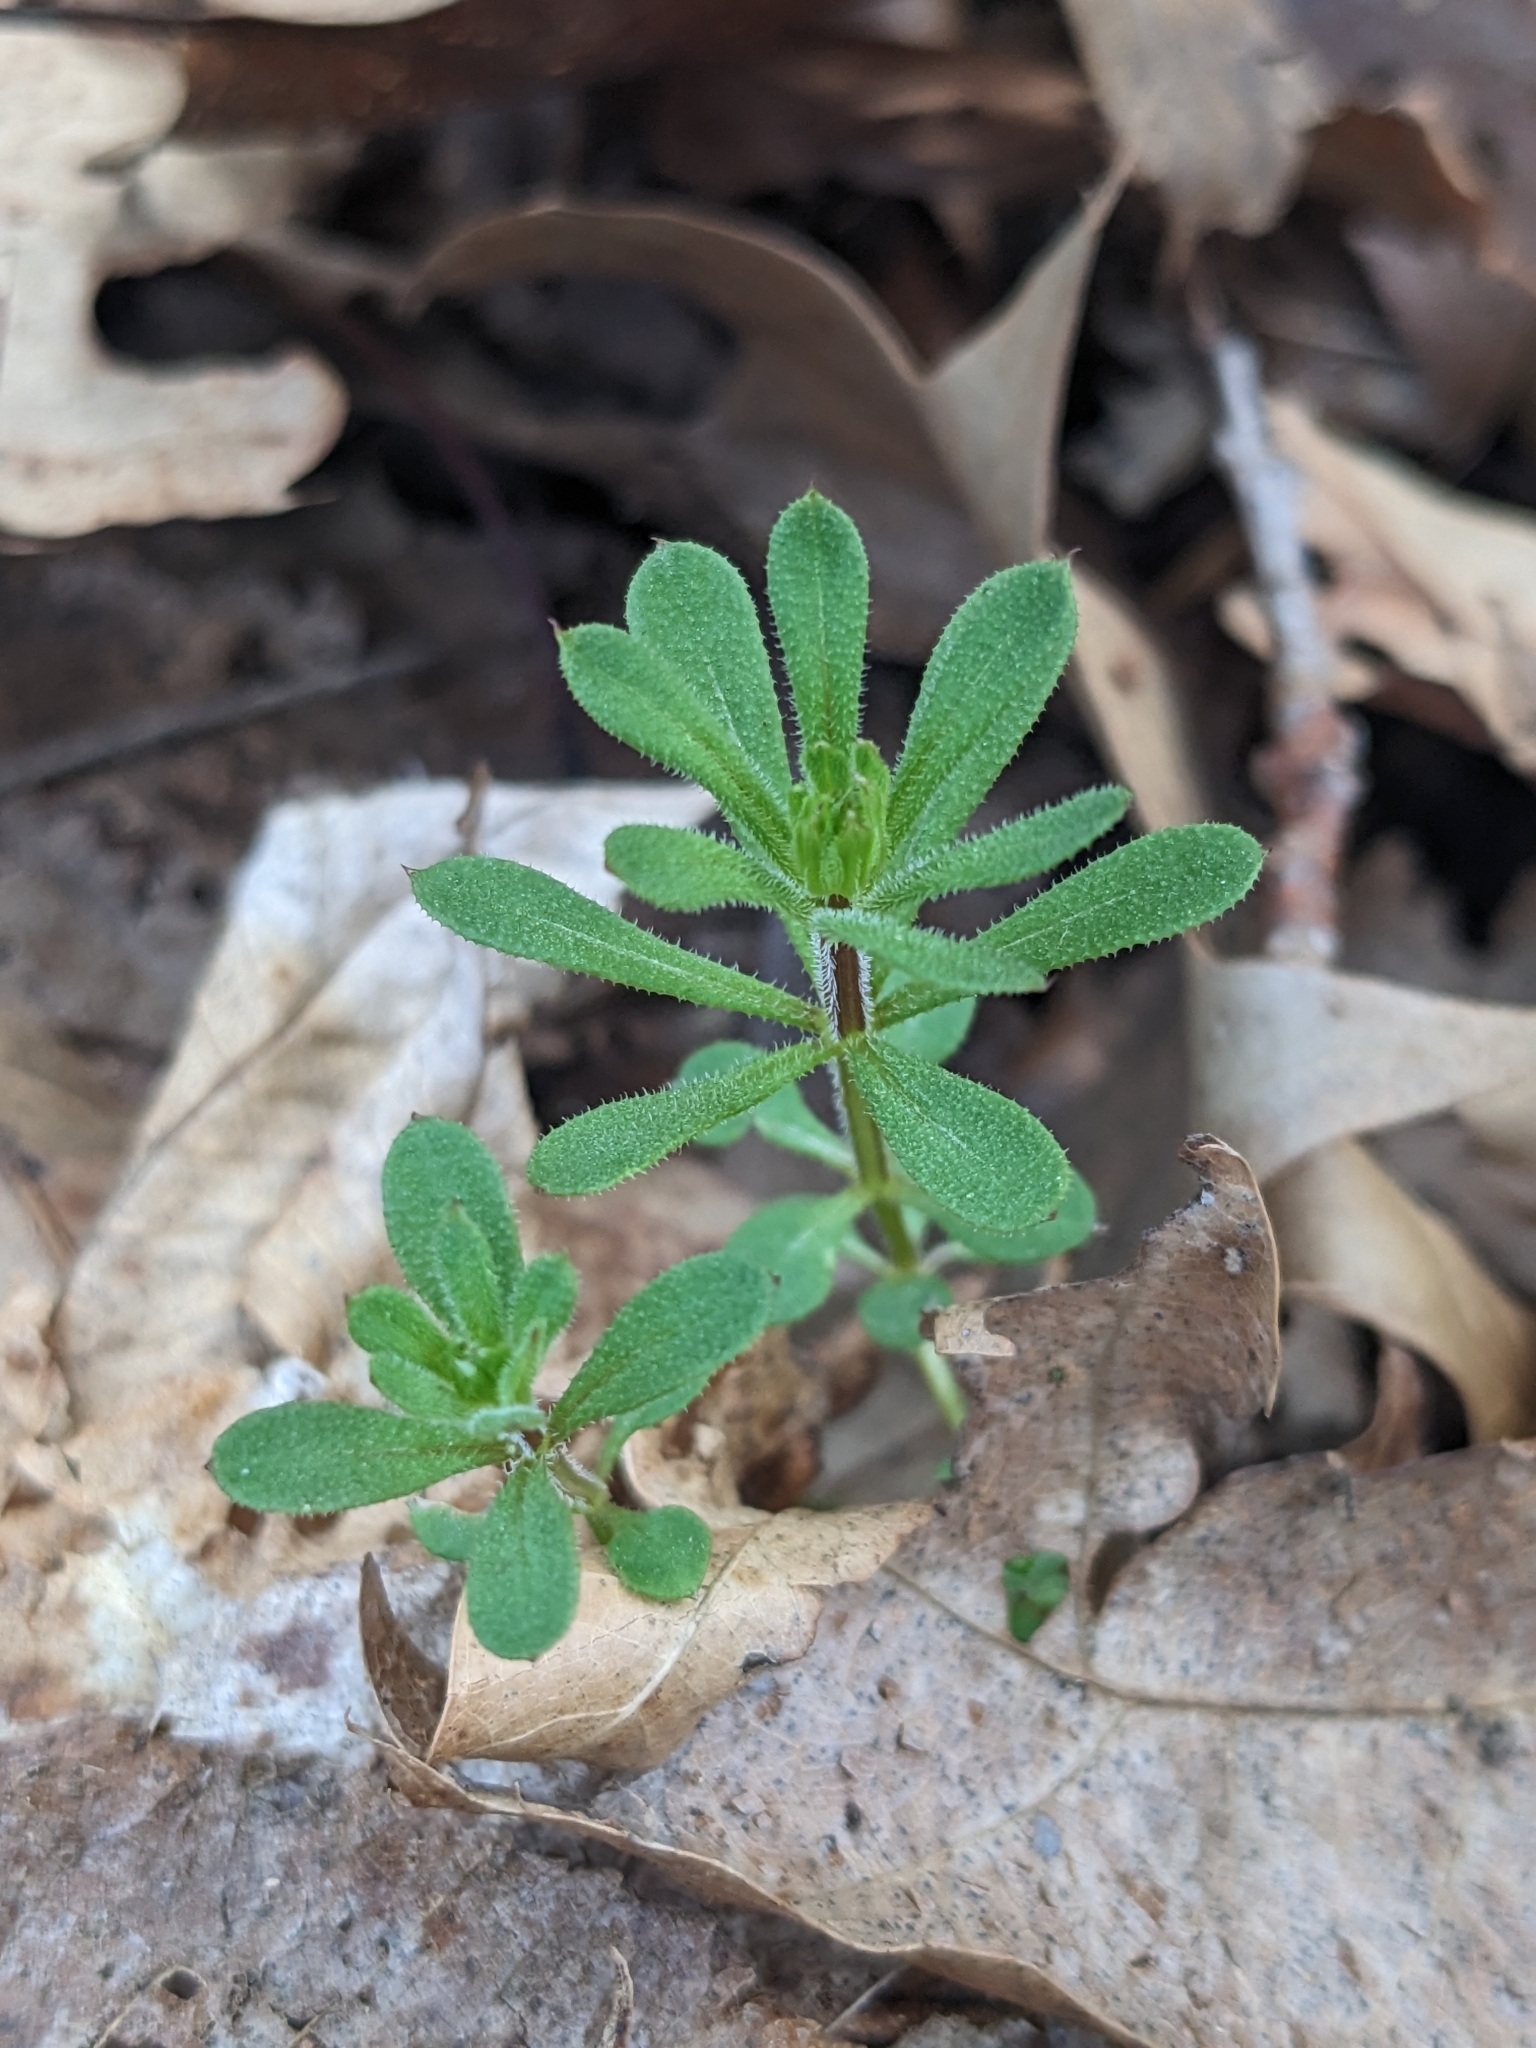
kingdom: Plantae
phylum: Tracheophyta
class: Magnoliopsida
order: Gentianales
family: Rubiaceae
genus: Galium
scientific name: Galium aparine
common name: Cleavers
